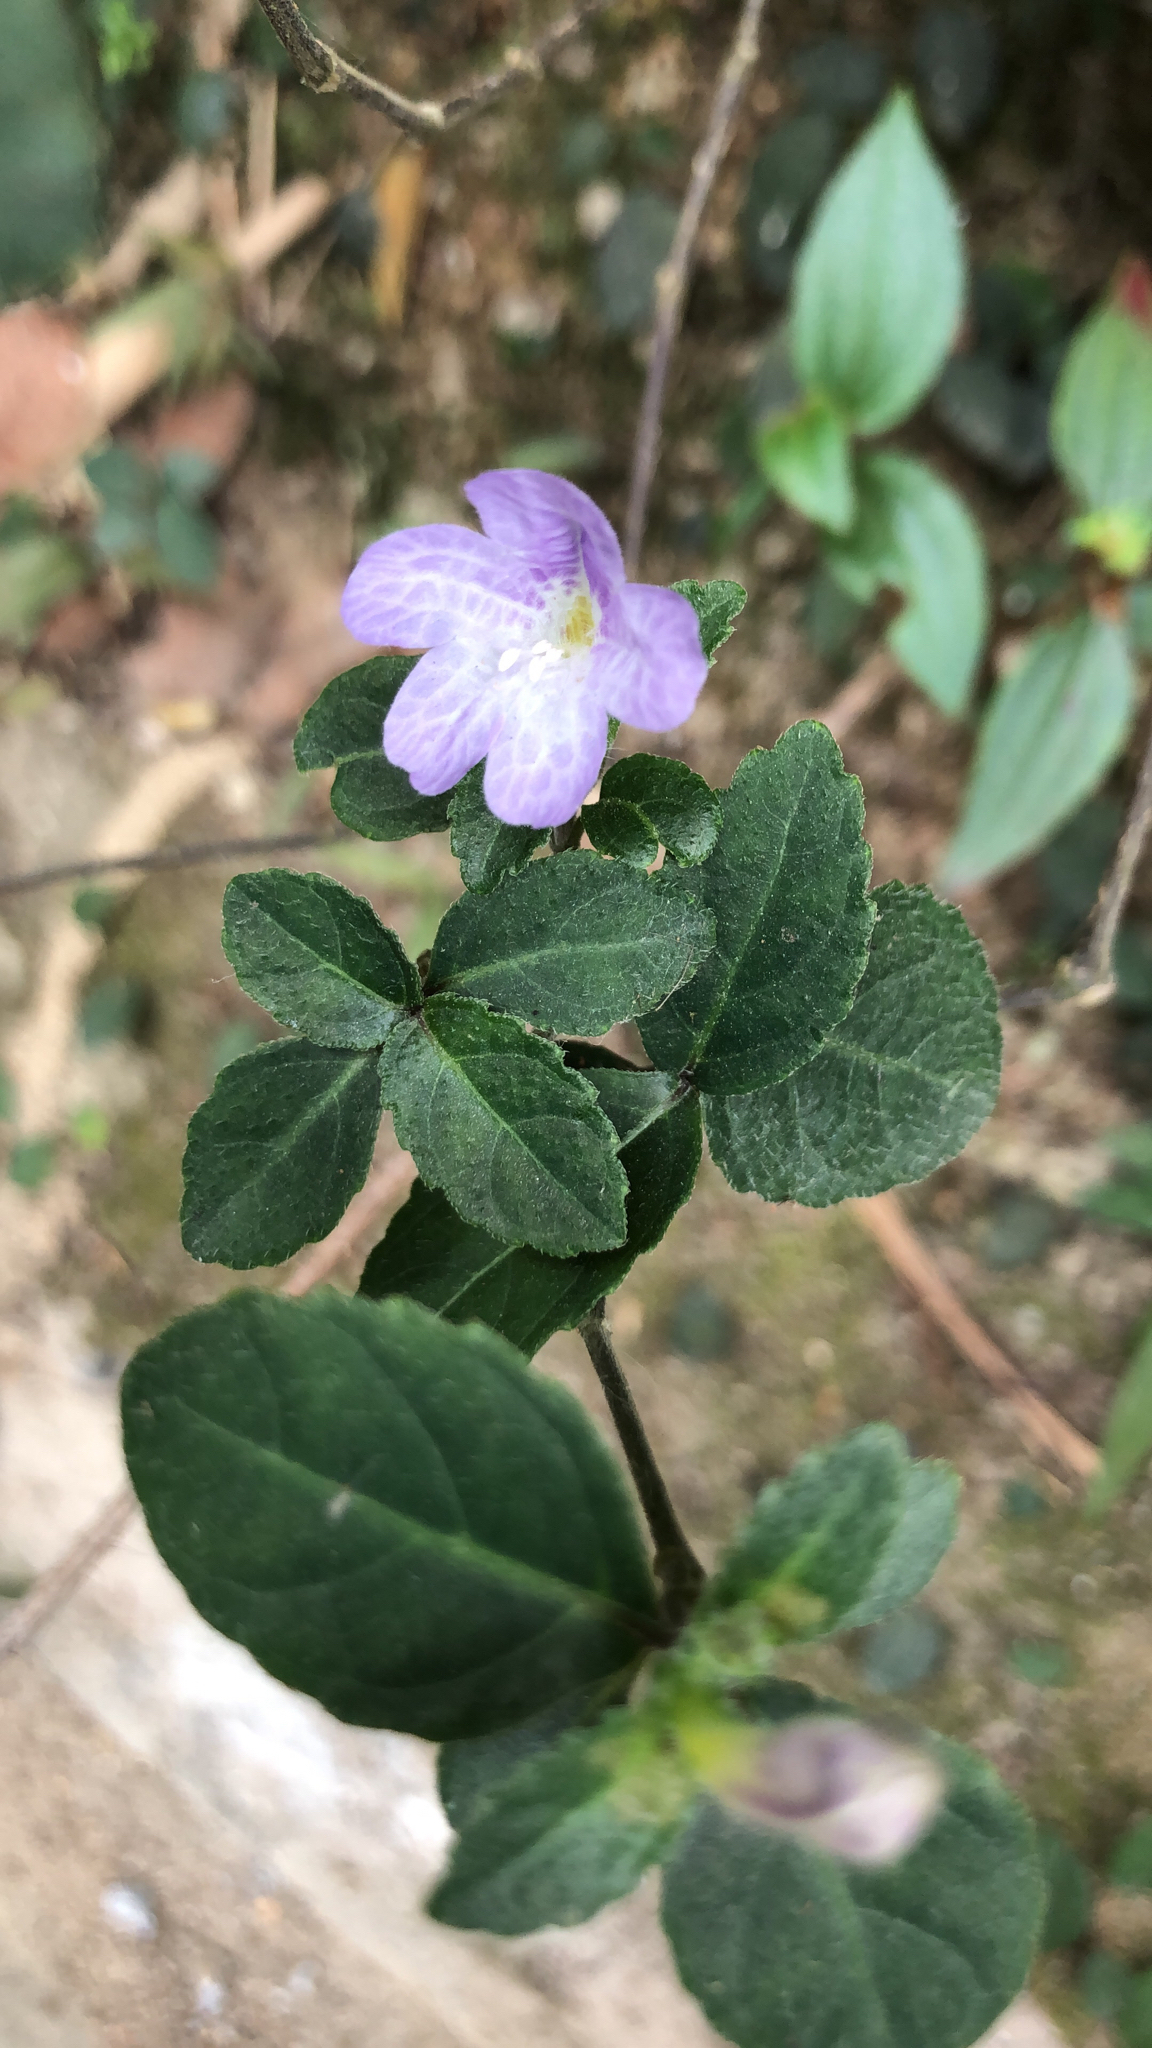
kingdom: Plantae
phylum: Tracheophyta
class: Magnoliopsida
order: Lamiales
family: Acanthaceae
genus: Strobilanthes
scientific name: Strobilanthes tetrasperma
